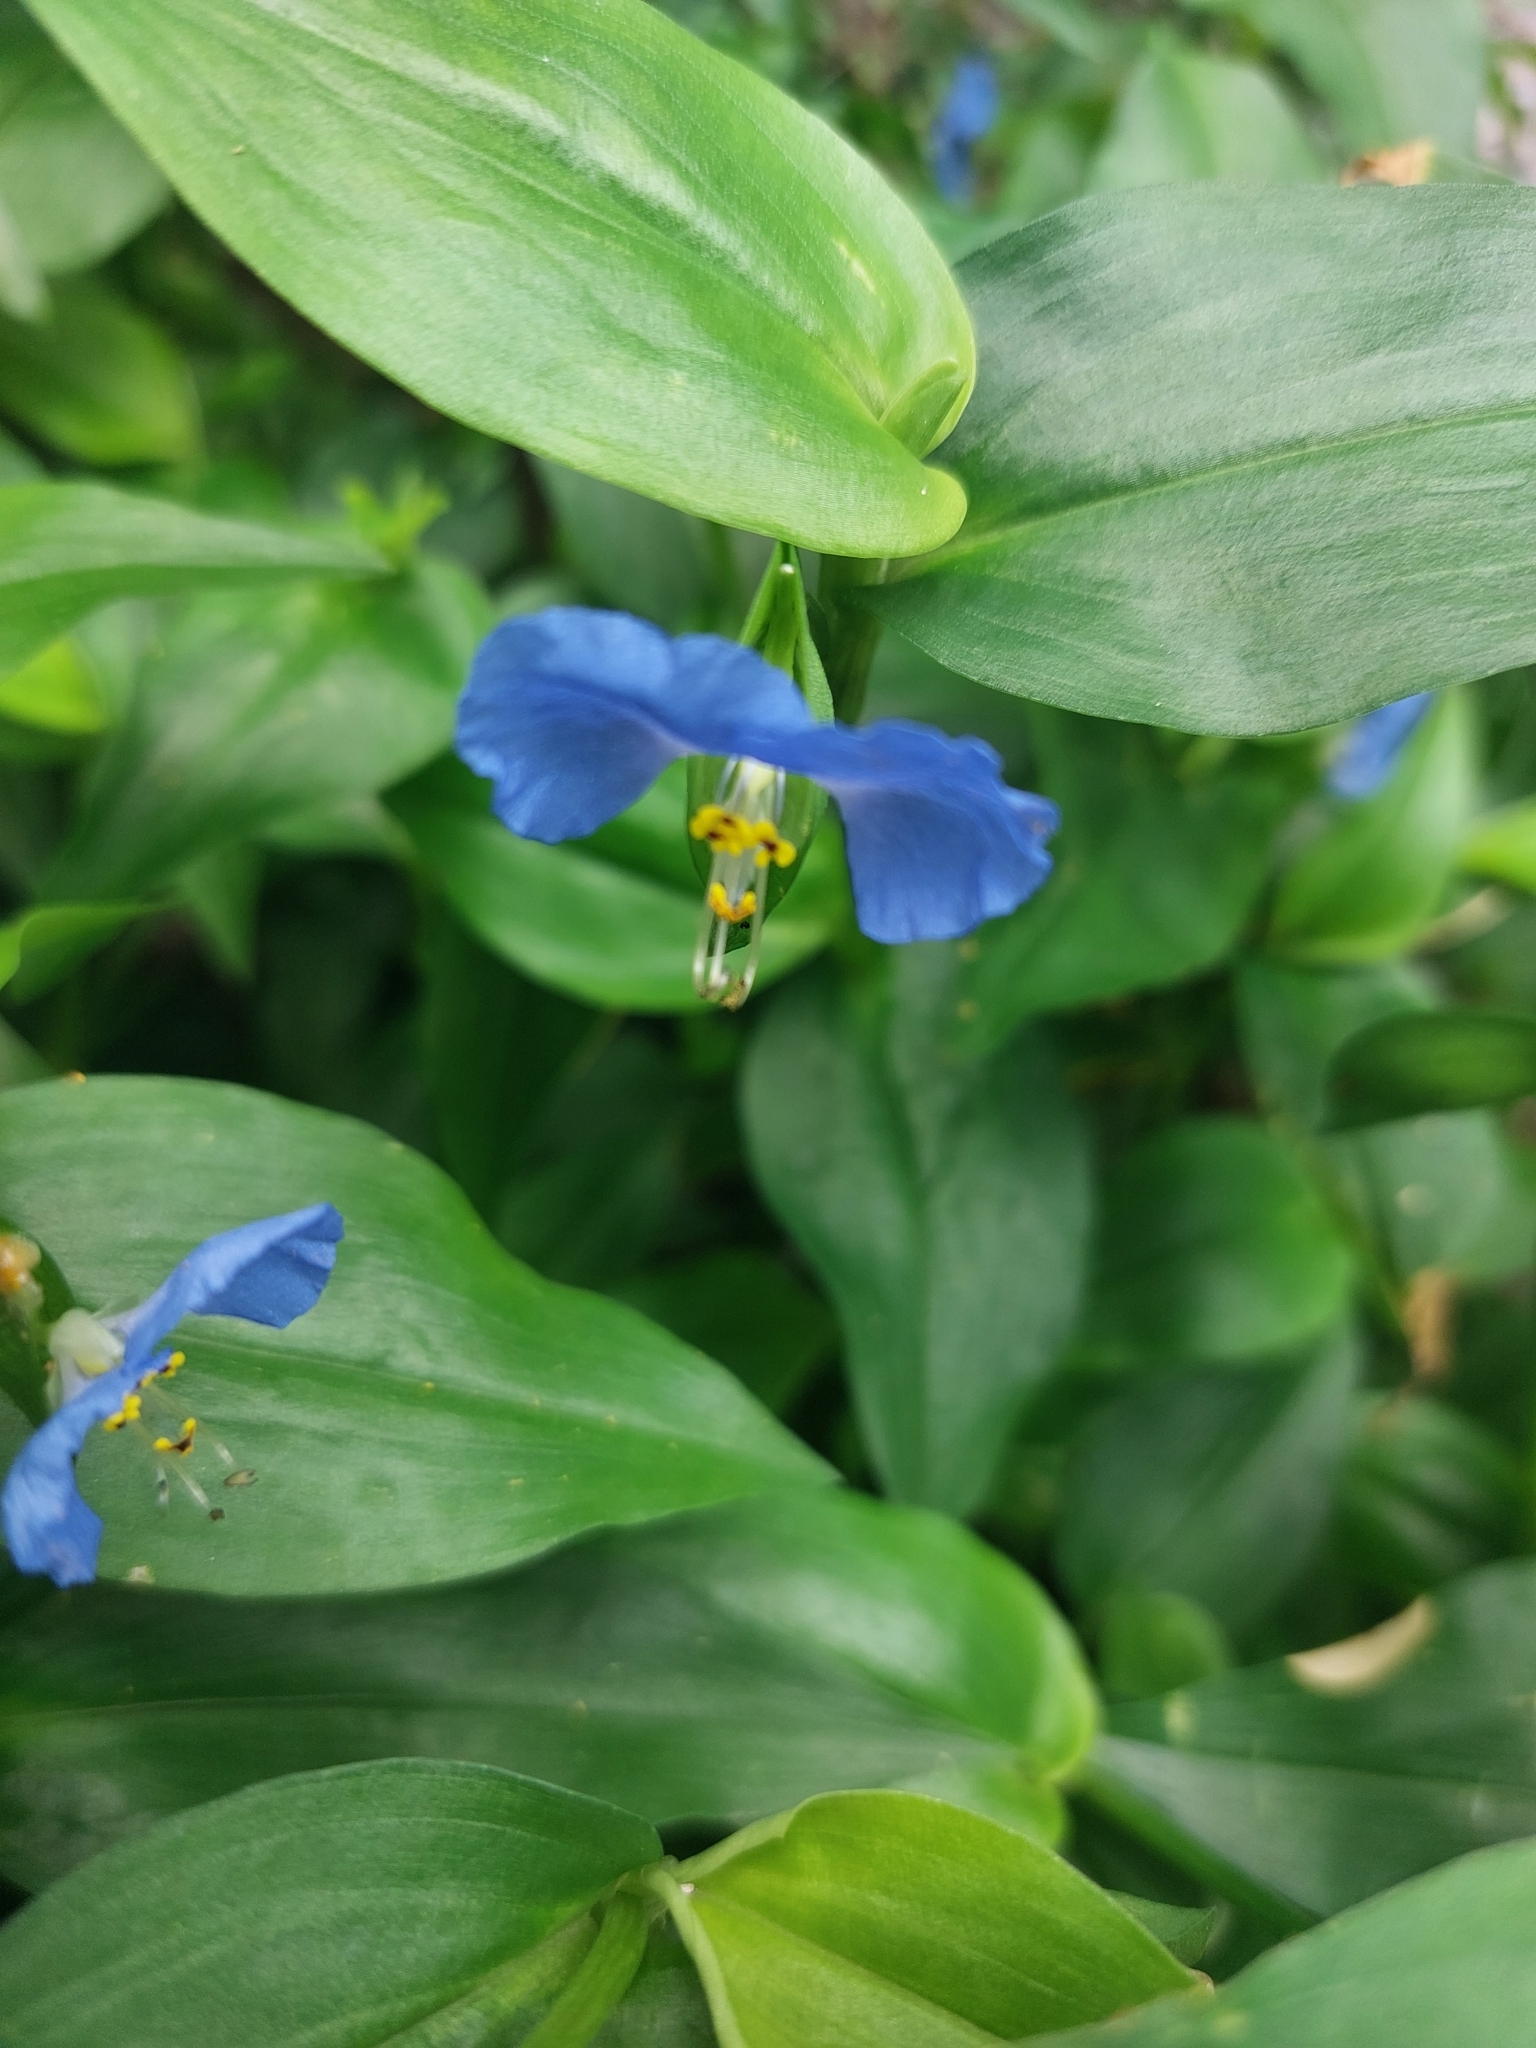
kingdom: Plantae
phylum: Tracheophyta
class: Liliopsida
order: Commelinales
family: Commelinaceae
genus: Commelina
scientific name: Commelina communis
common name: Asiatic dayflower
